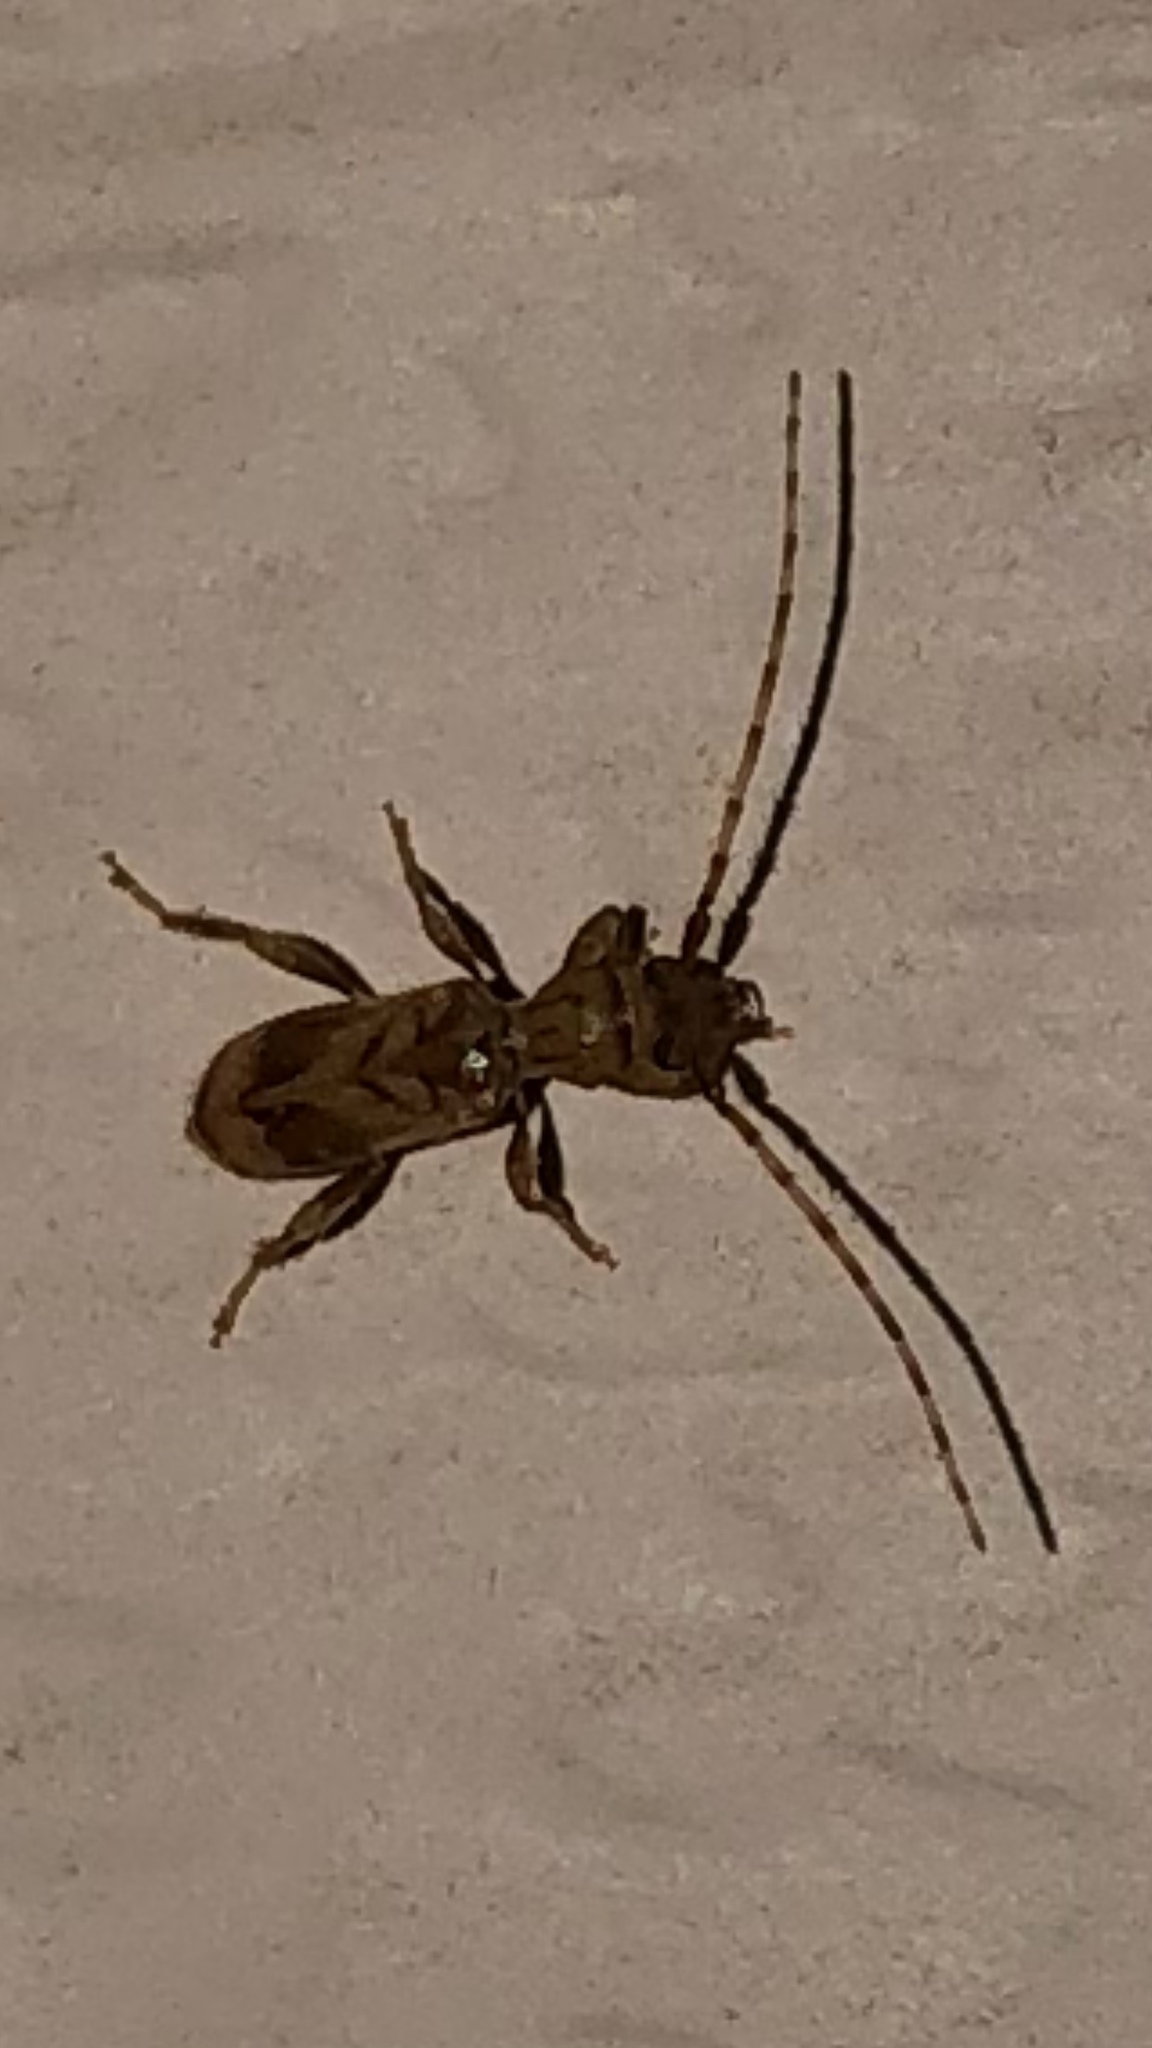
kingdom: Animalia
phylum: Arthropoda
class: Insecta
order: Coleoptera
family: Cerambycidae
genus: Obrium
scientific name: Obrium maculatum
